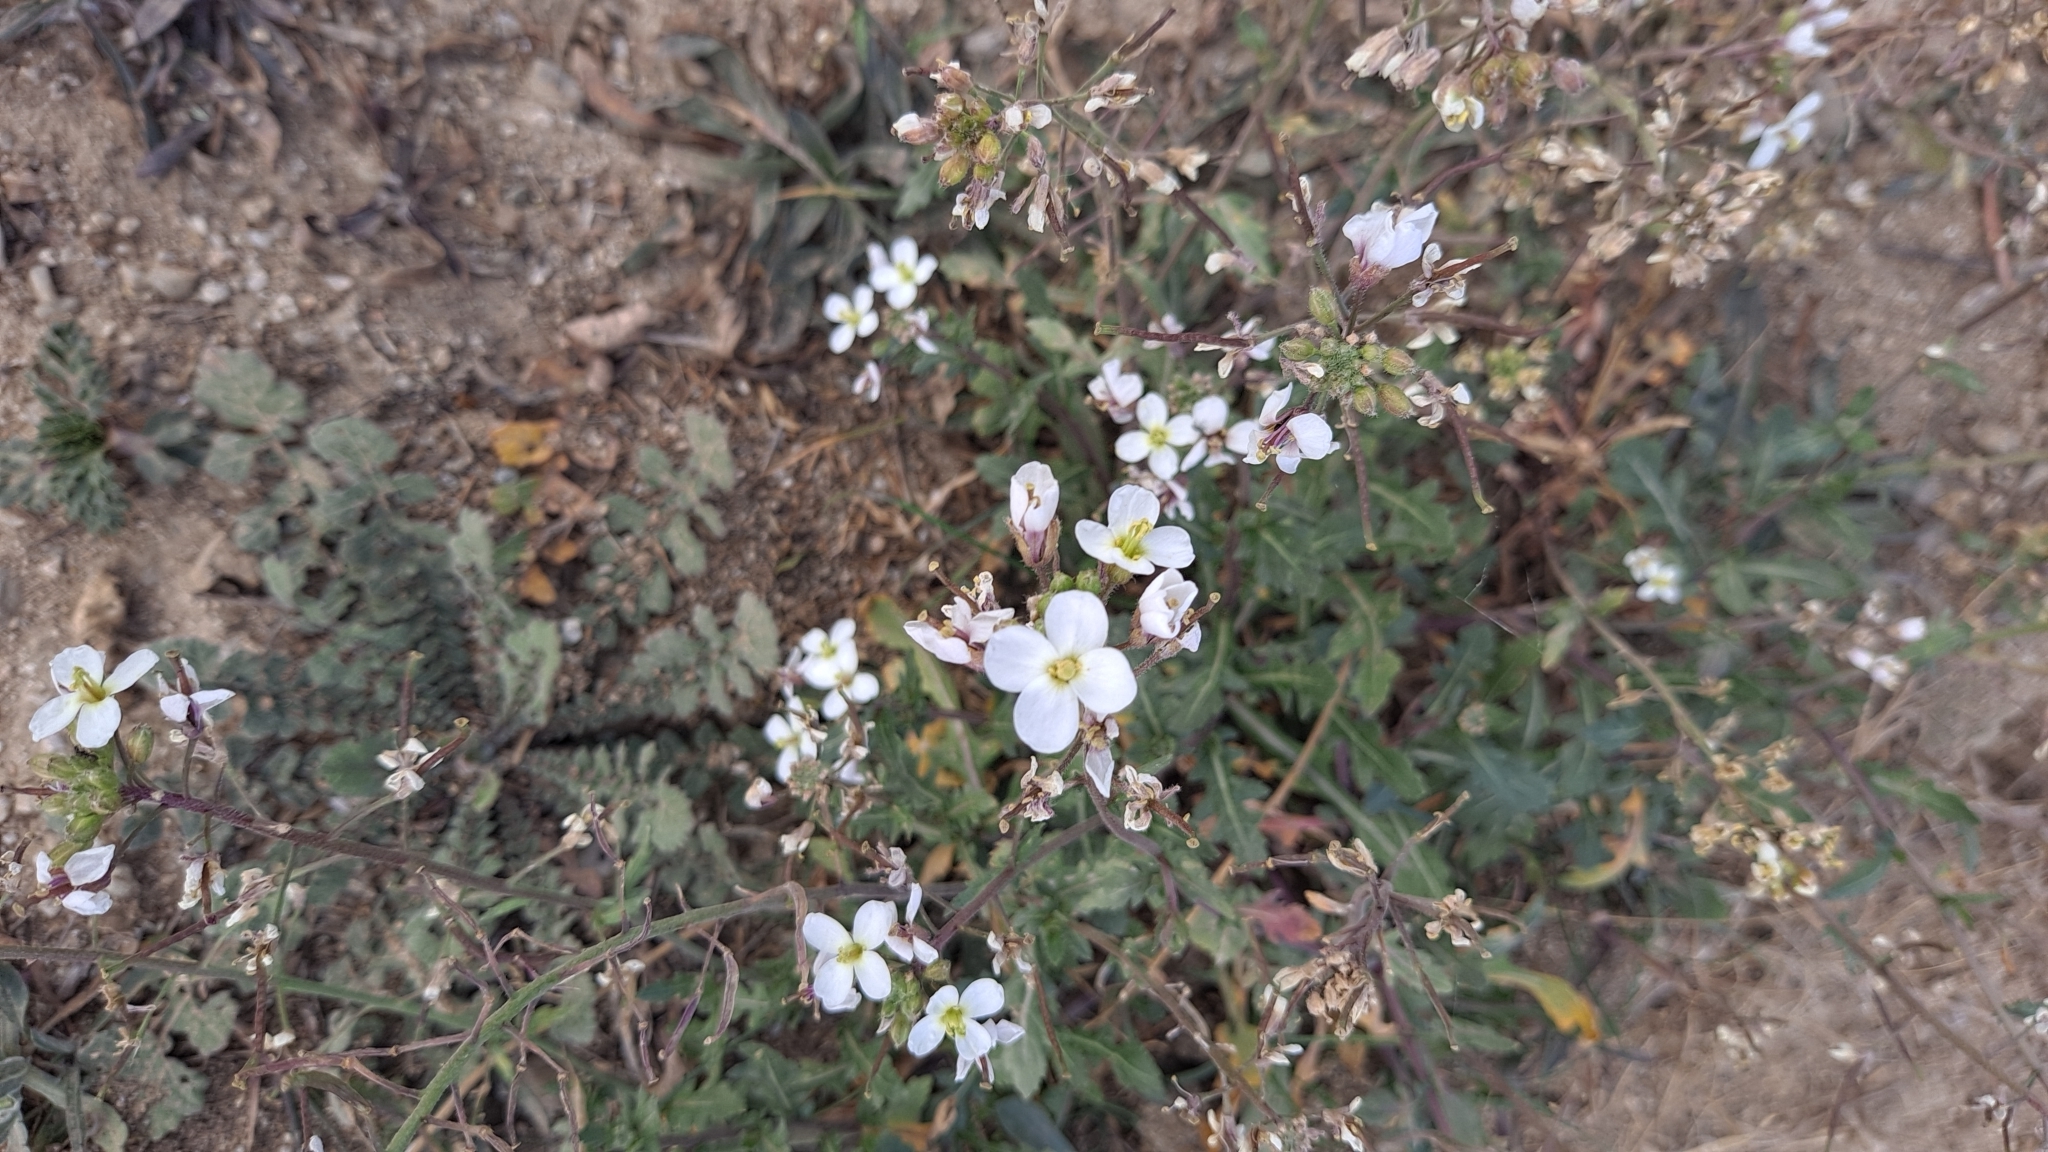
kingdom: Plantae
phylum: Tracheophyta
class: Magnoliopsida
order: Brassicales
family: Brassicaceae
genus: Diplotaxis
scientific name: Diplotaxis erucoides
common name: White rocket
